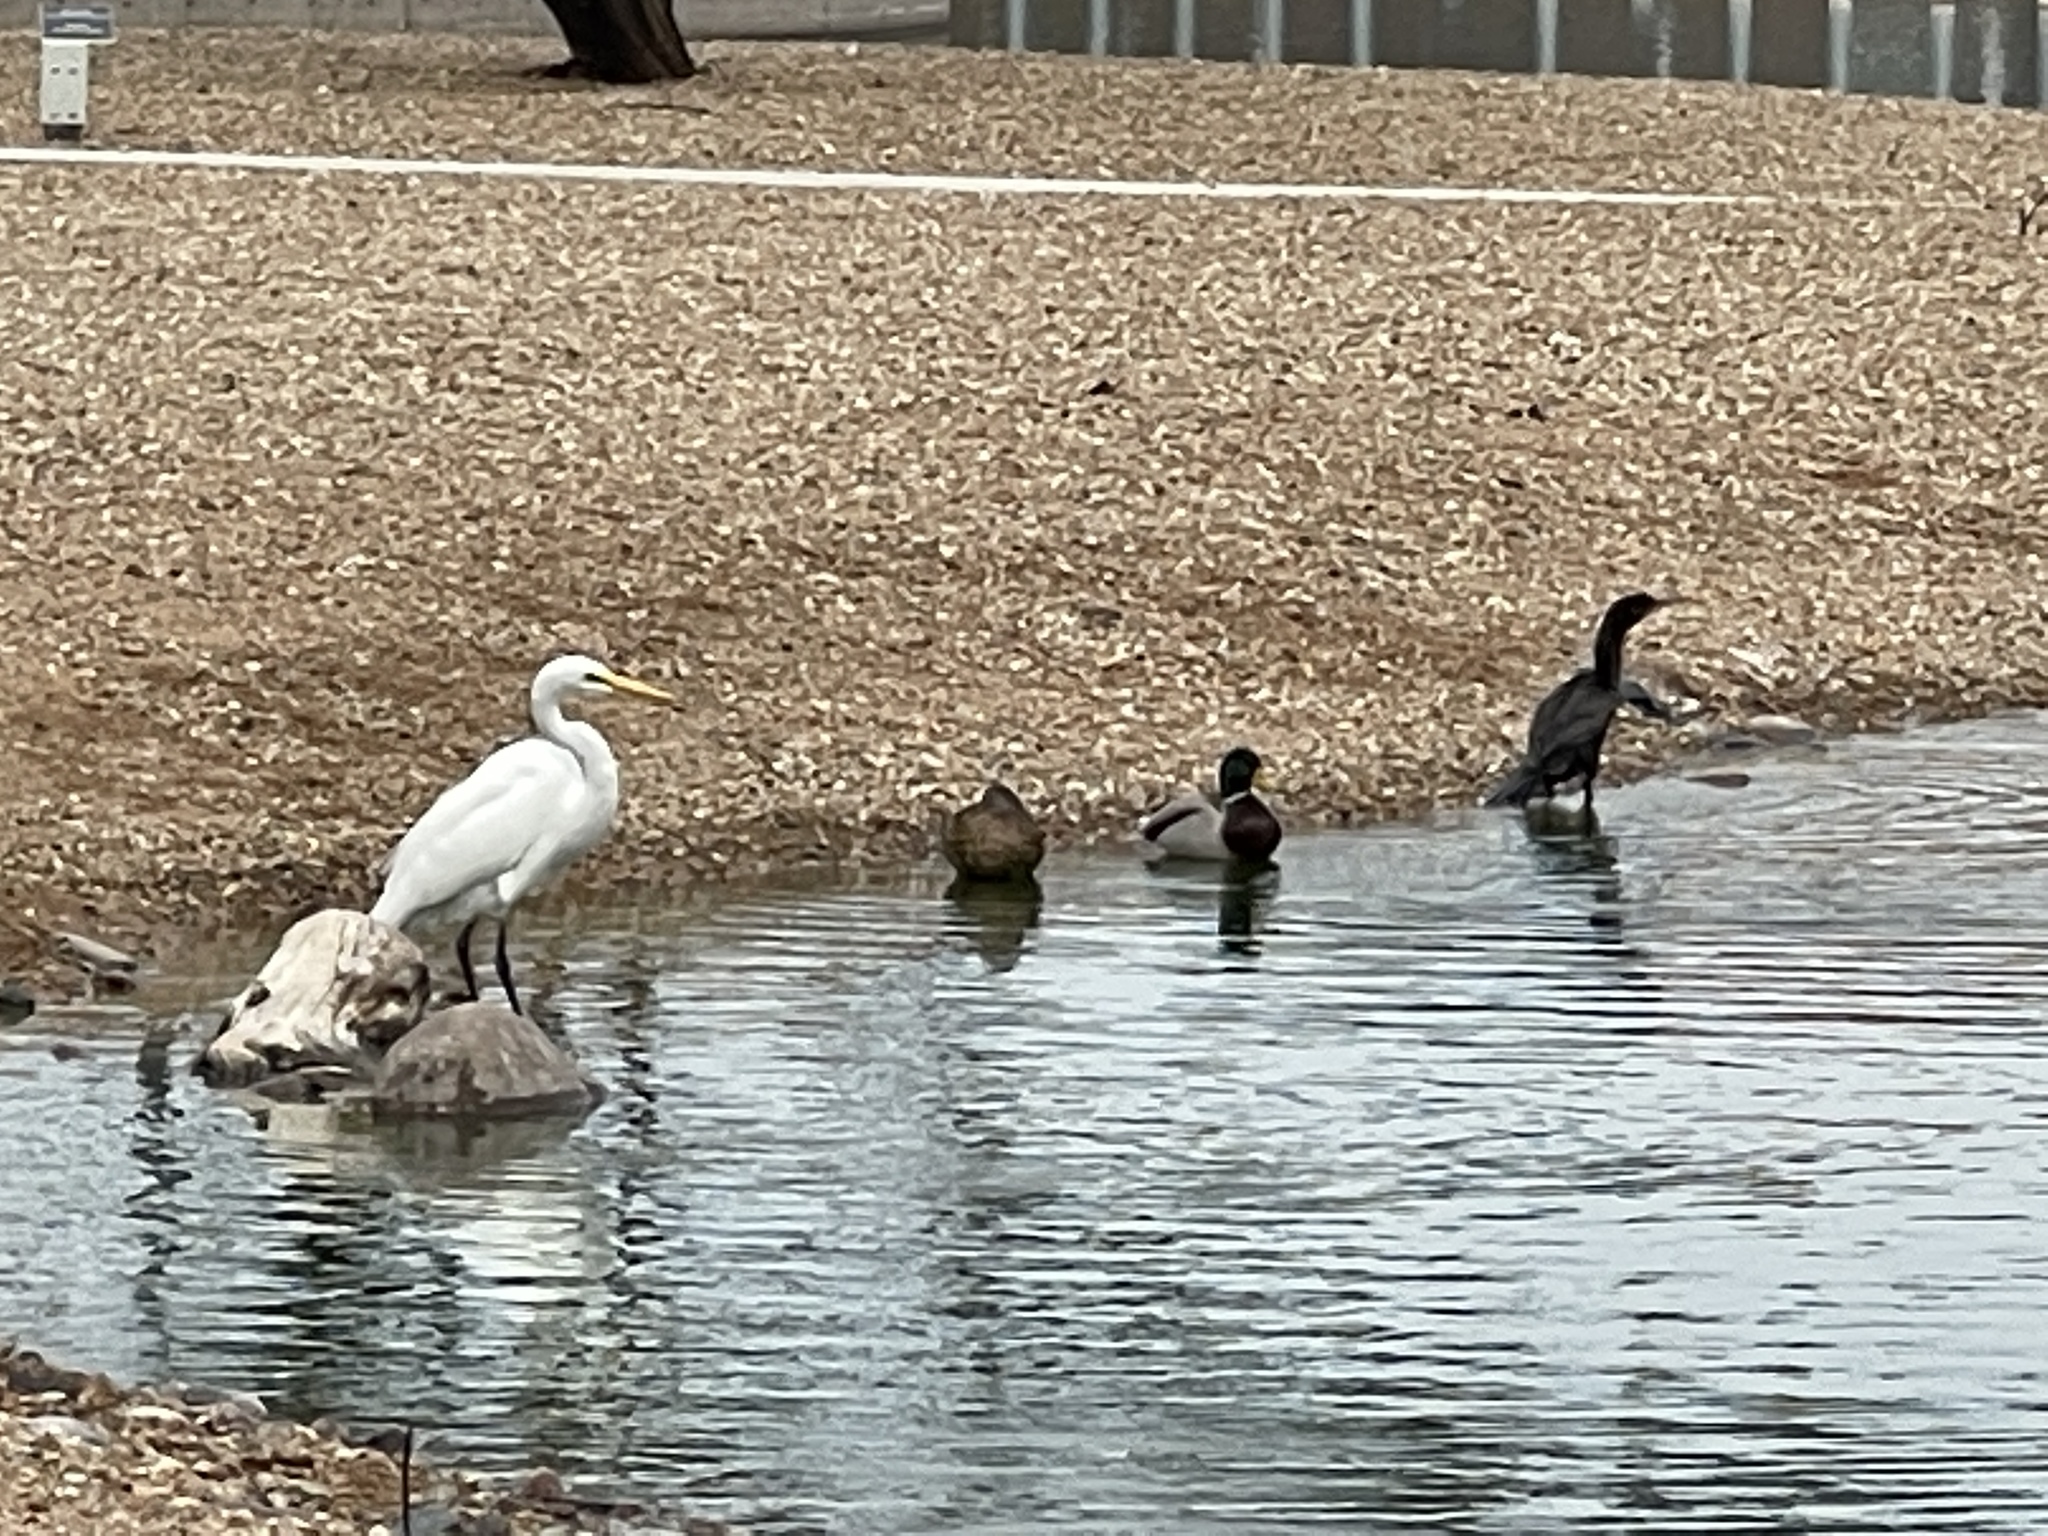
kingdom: Animalia
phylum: Chordata
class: Aves
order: Suliformes
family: Phalacrocoracidae
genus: Phalacrocorax
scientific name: Phalacrocorax brasilianus
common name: Neotropic cormorant
